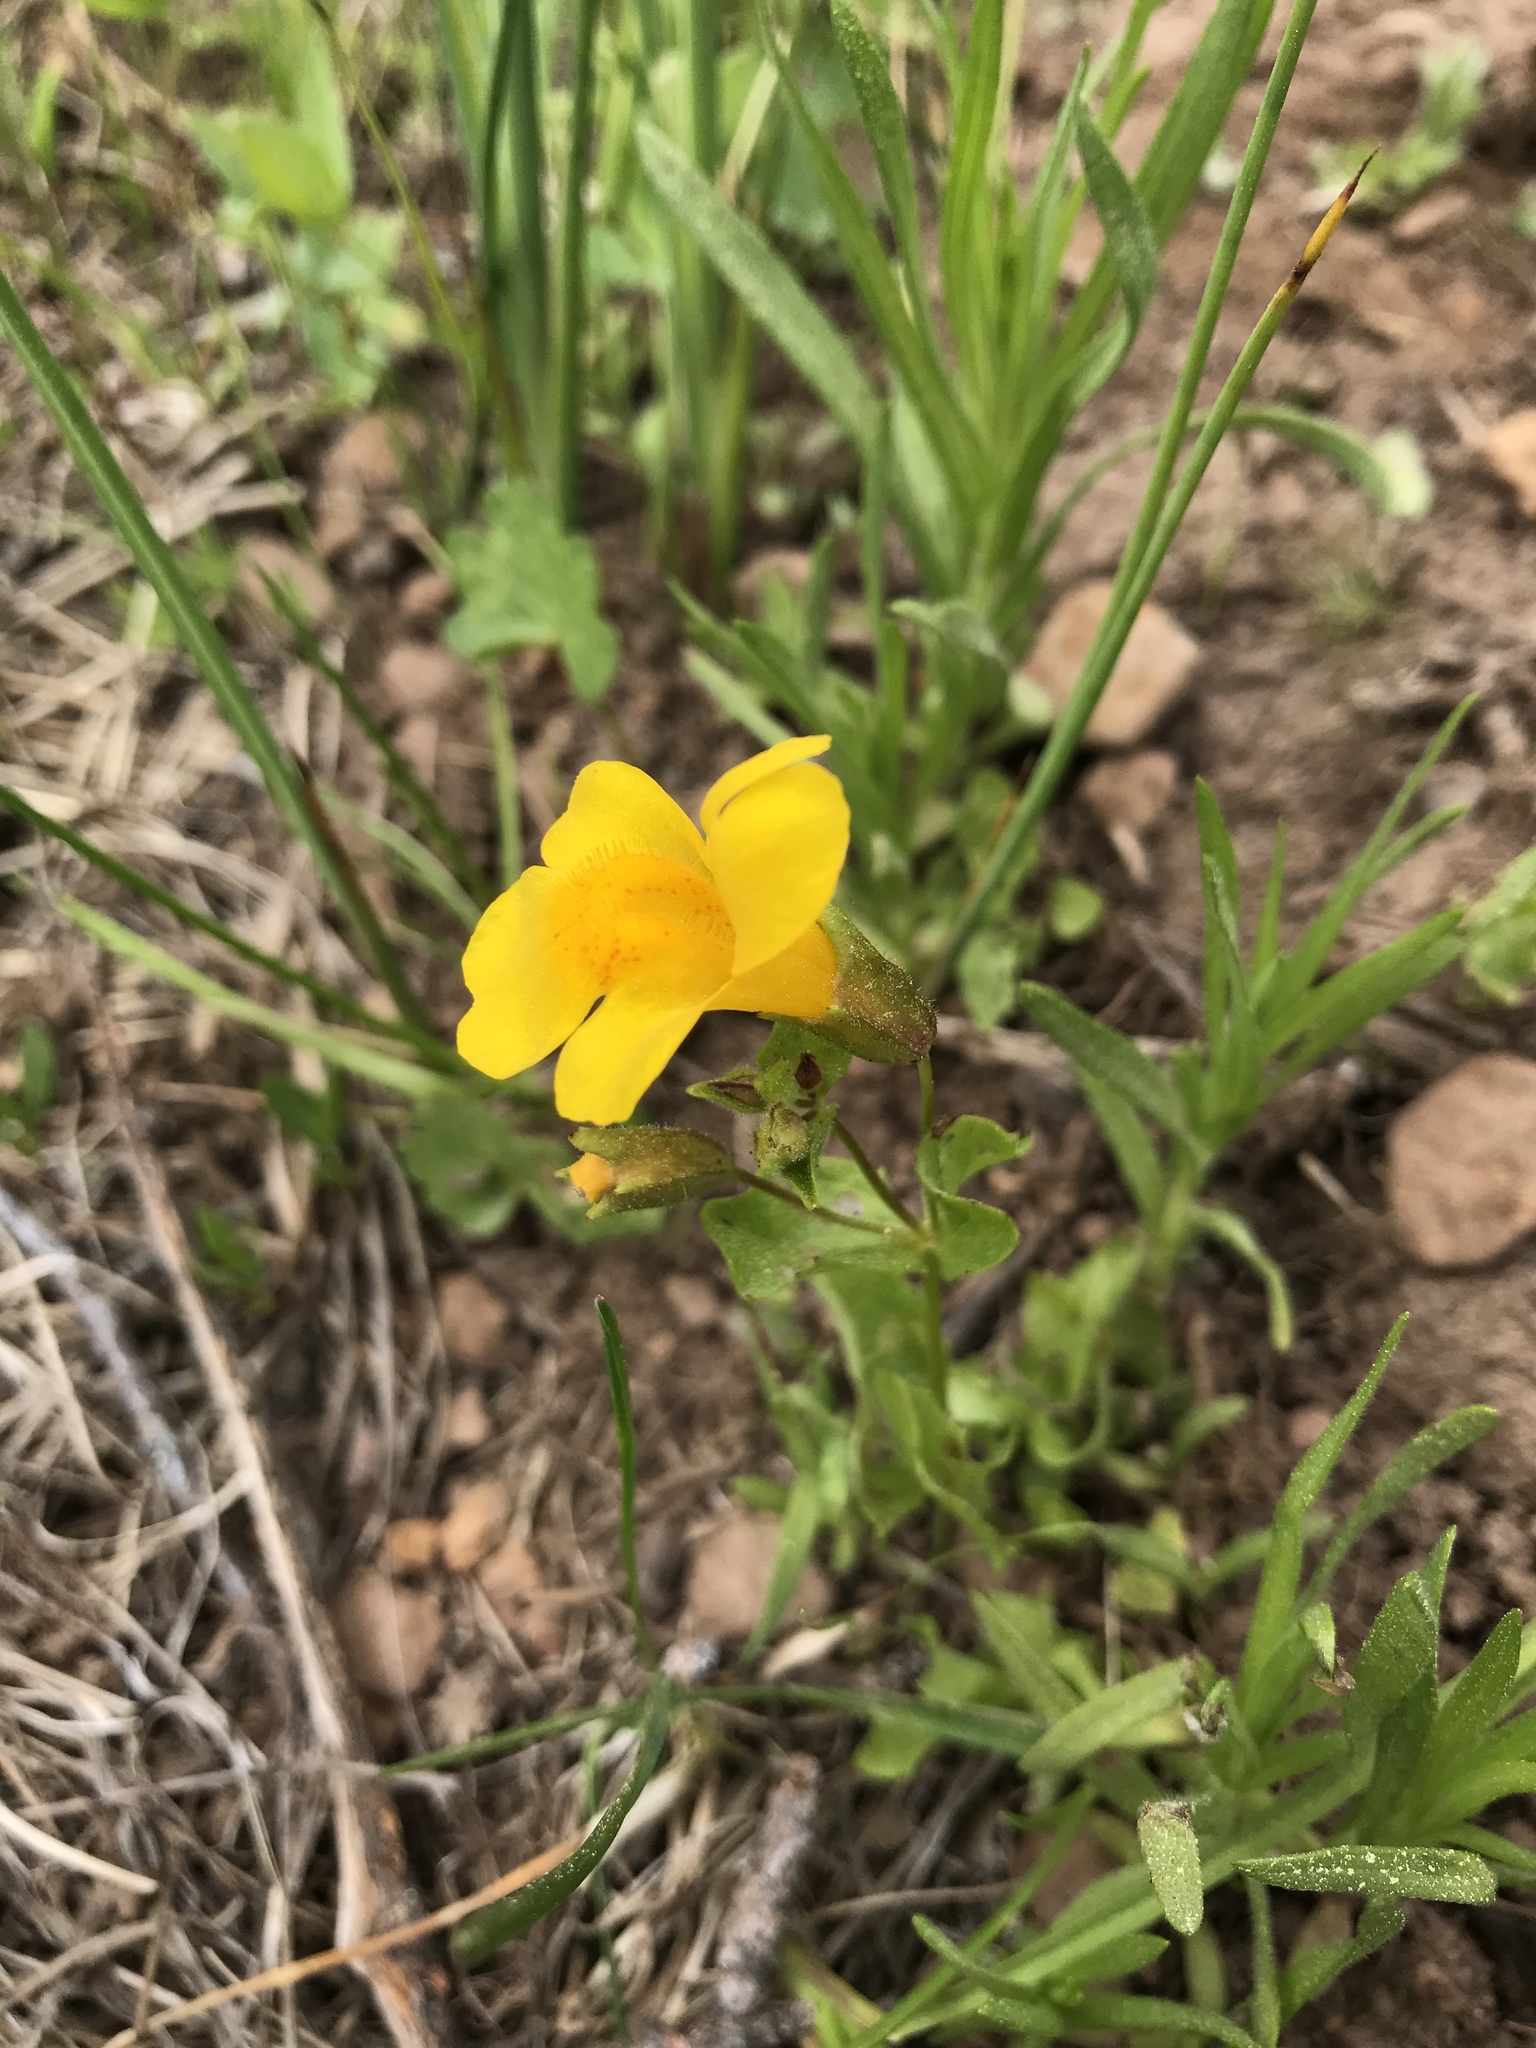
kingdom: Plantae
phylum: Tracheophyta
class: Magnoliopsida
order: Lamiales
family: Phrymaceae
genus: Erythranthe
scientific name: Erythranthe guttata
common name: Monkeyflower
